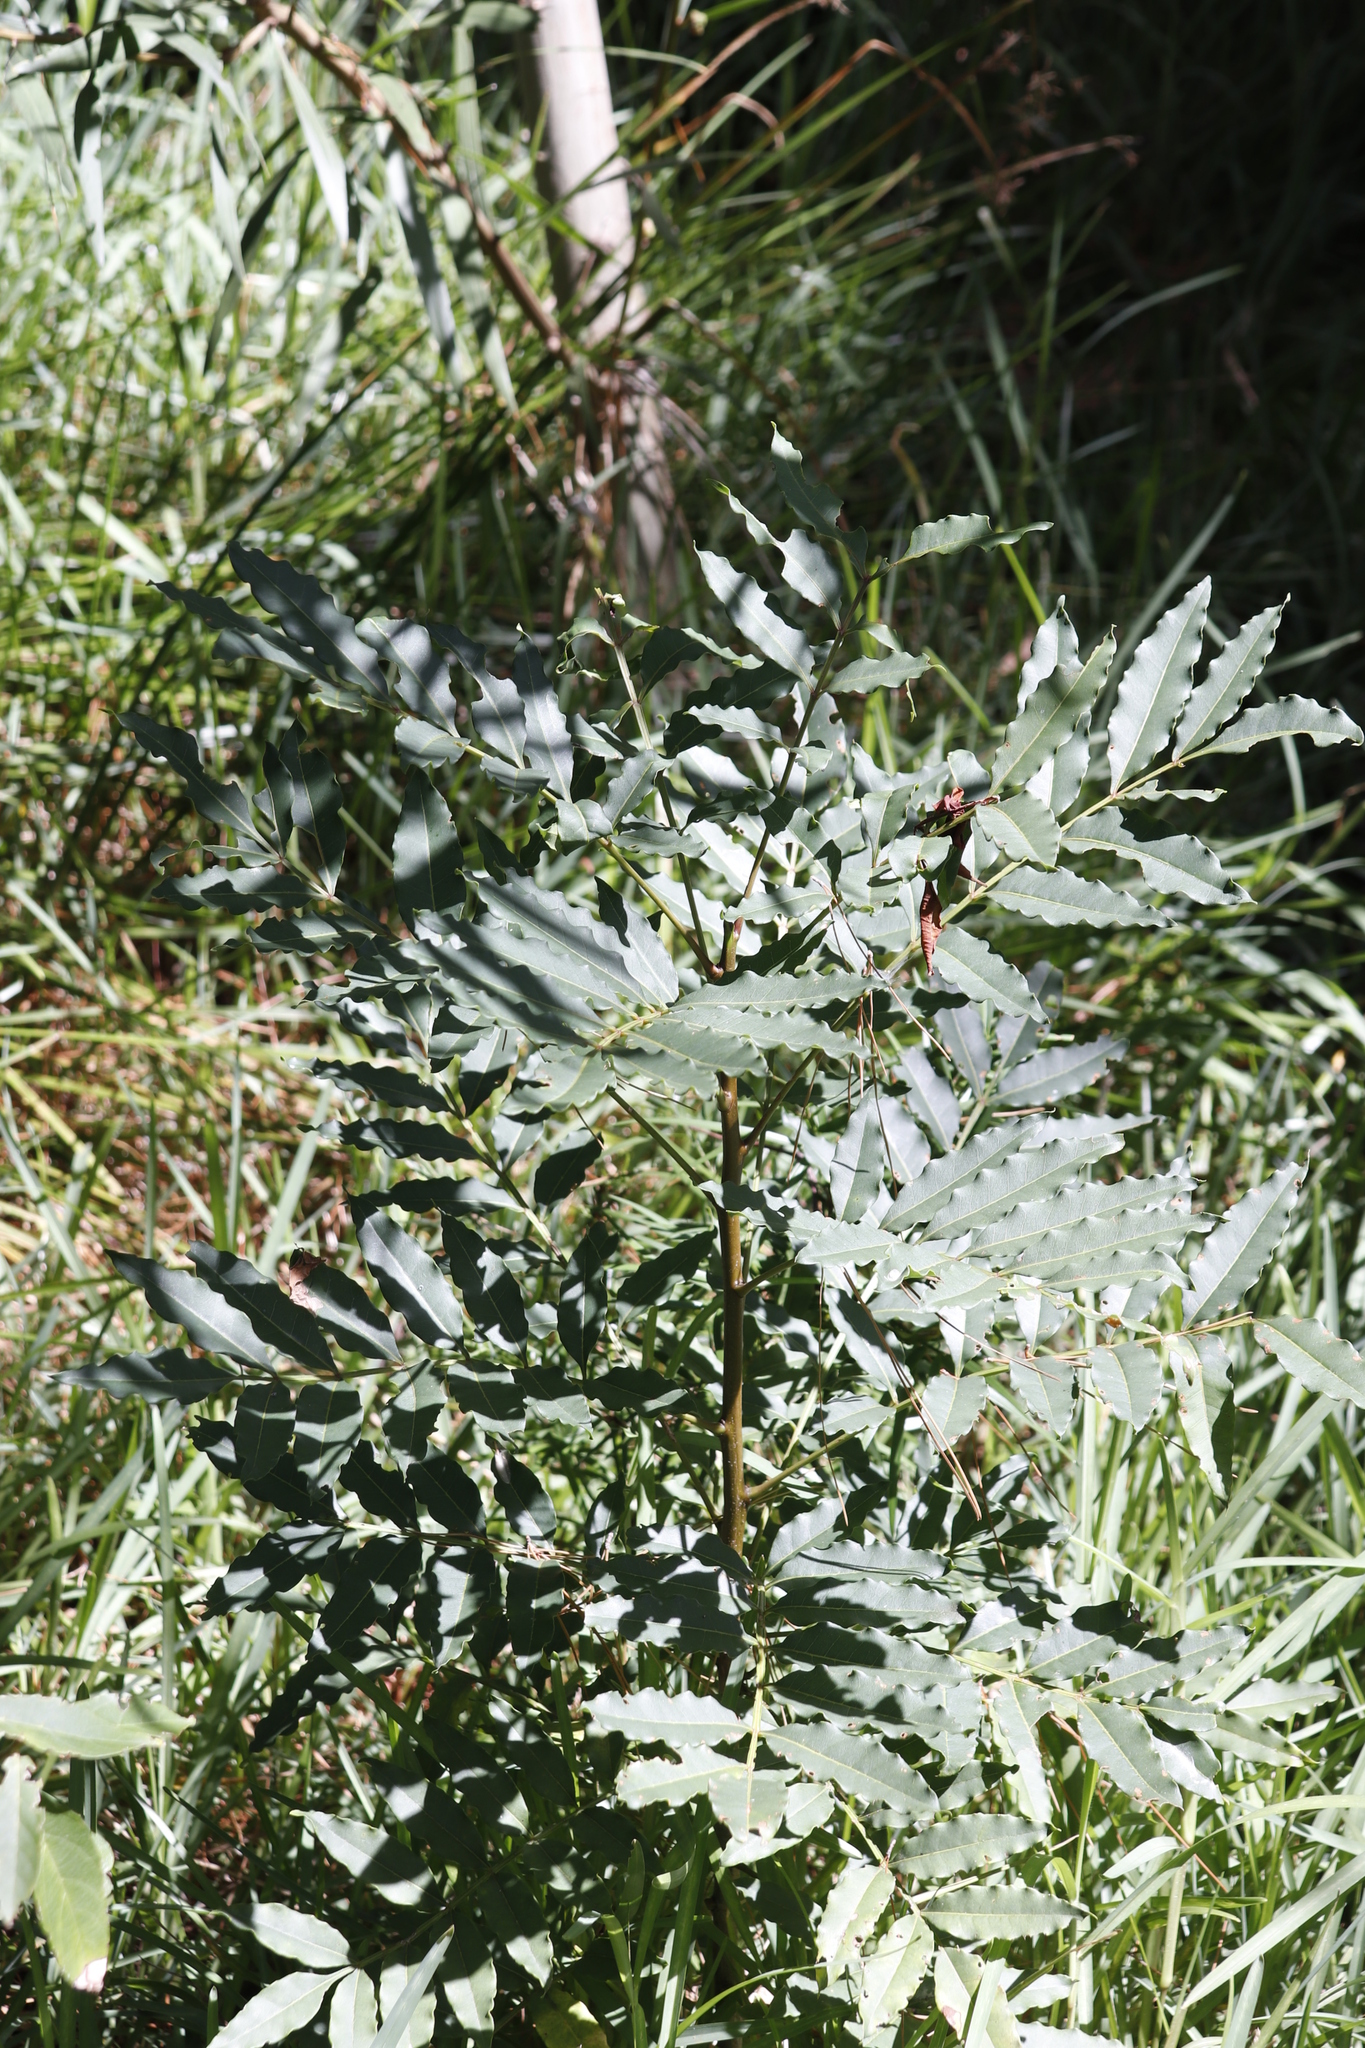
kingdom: Plantae
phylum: Tracheophyta
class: Magnoliopsida
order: Sapindales
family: Meliaceae
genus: Ekebergia
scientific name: Ekebergia capensis
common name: Cape-ash
